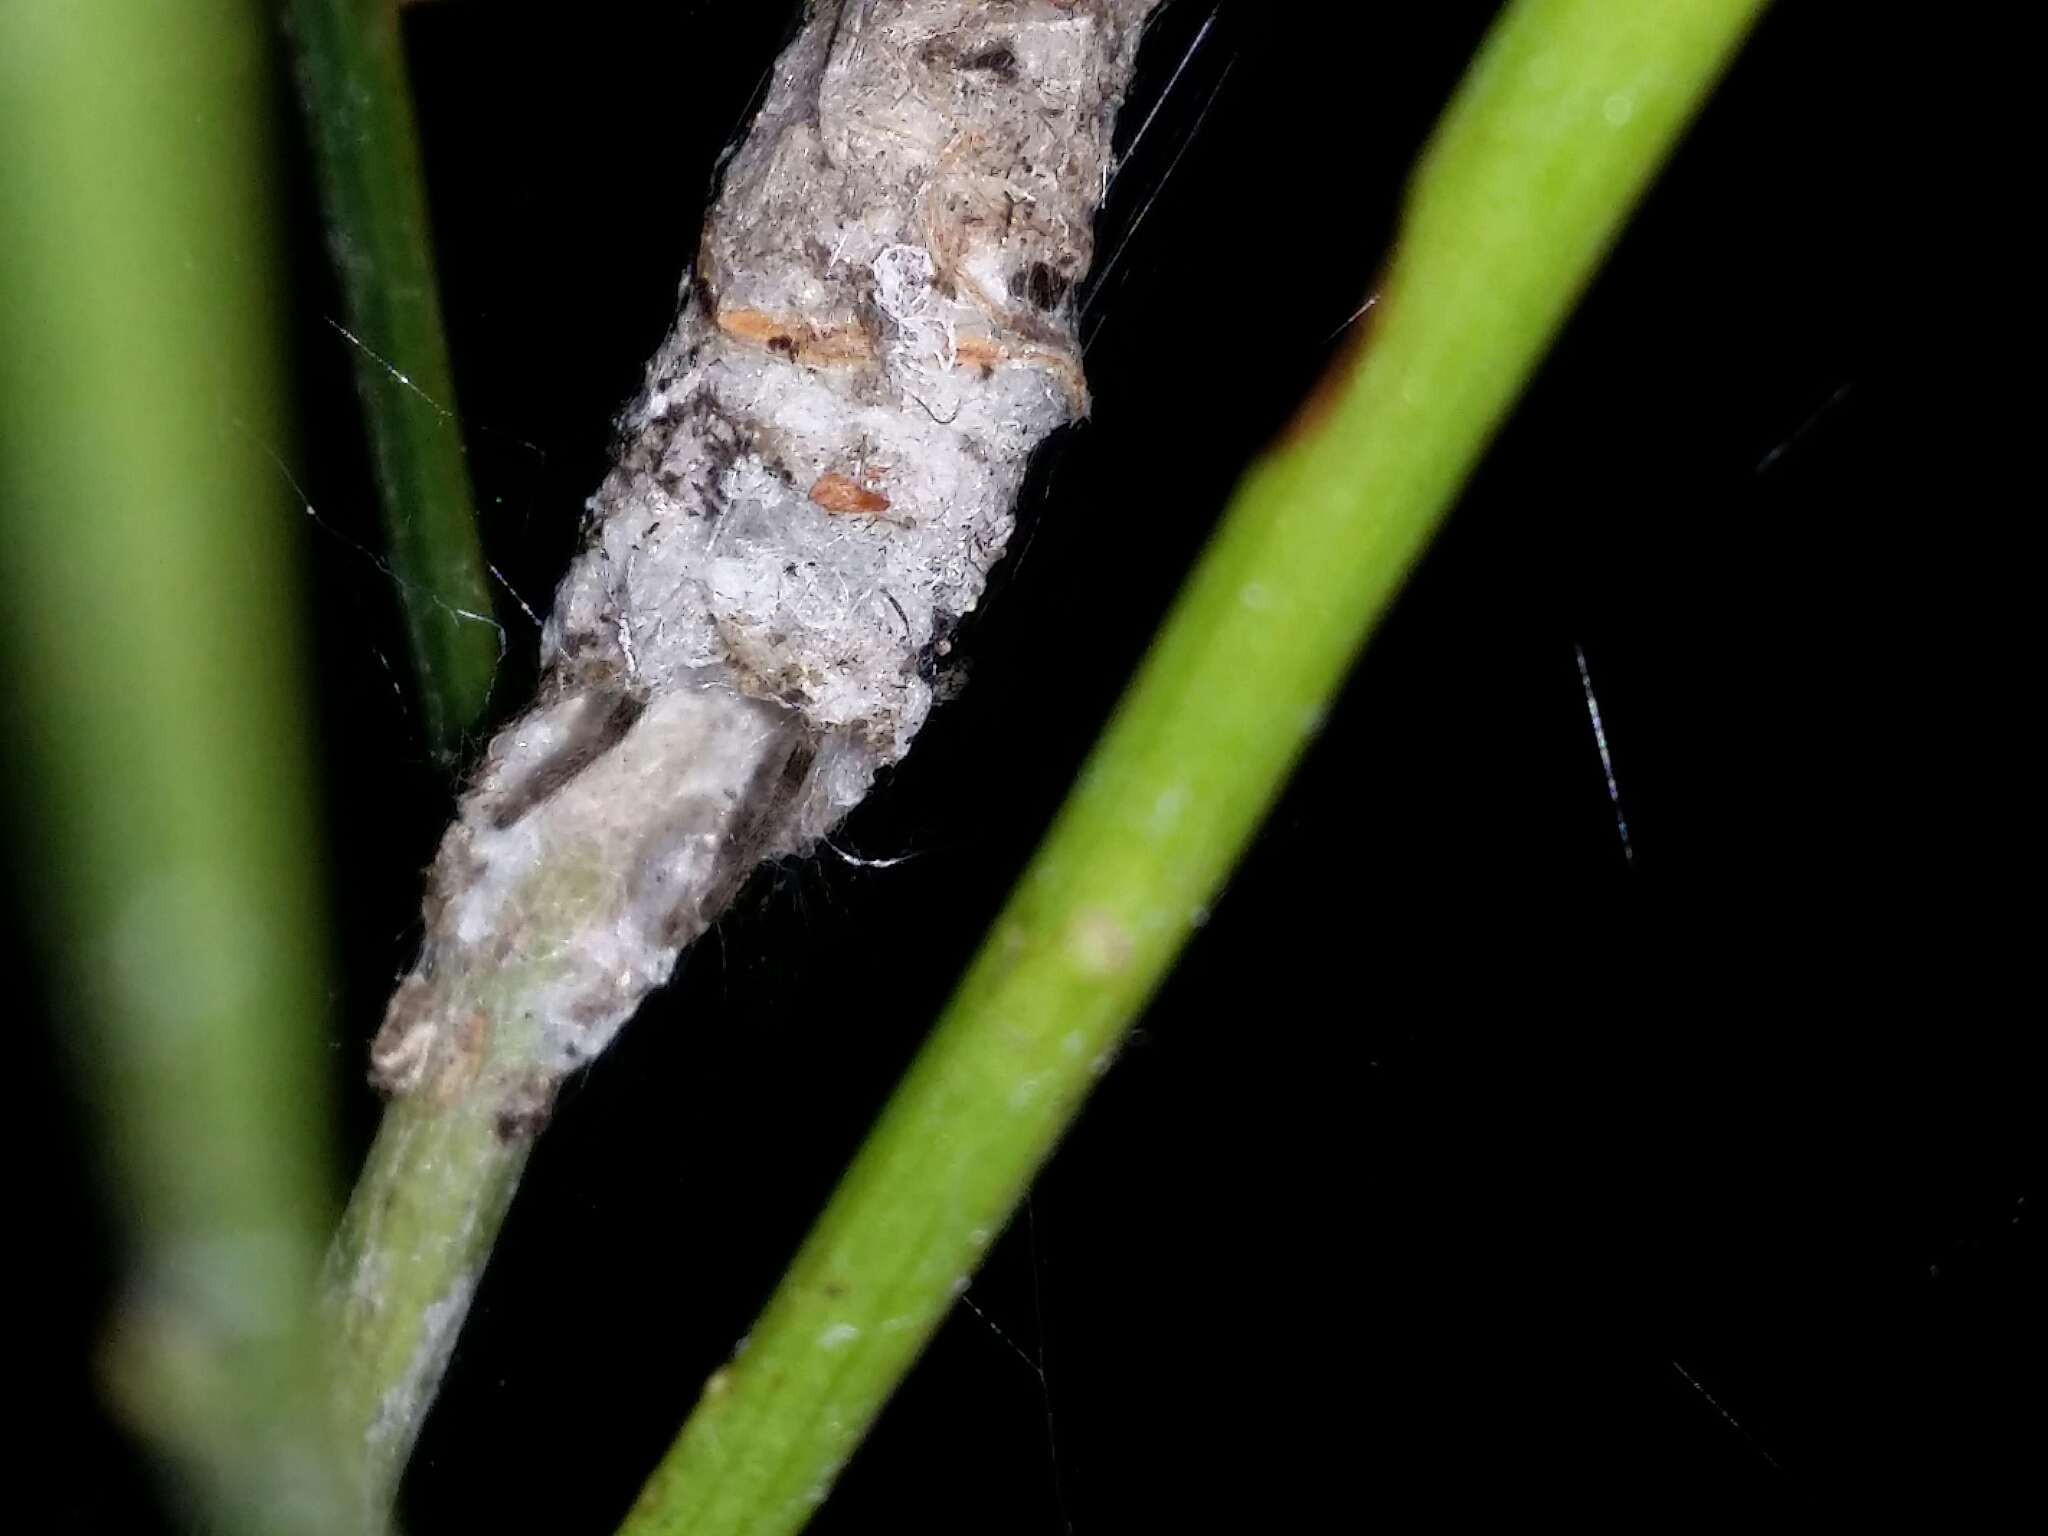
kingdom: Animalia
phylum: Arthropoda
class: Arachnida
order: Araneae
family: Desidae
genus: Phryganoporus
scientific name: Phryganoporus nigrinus
